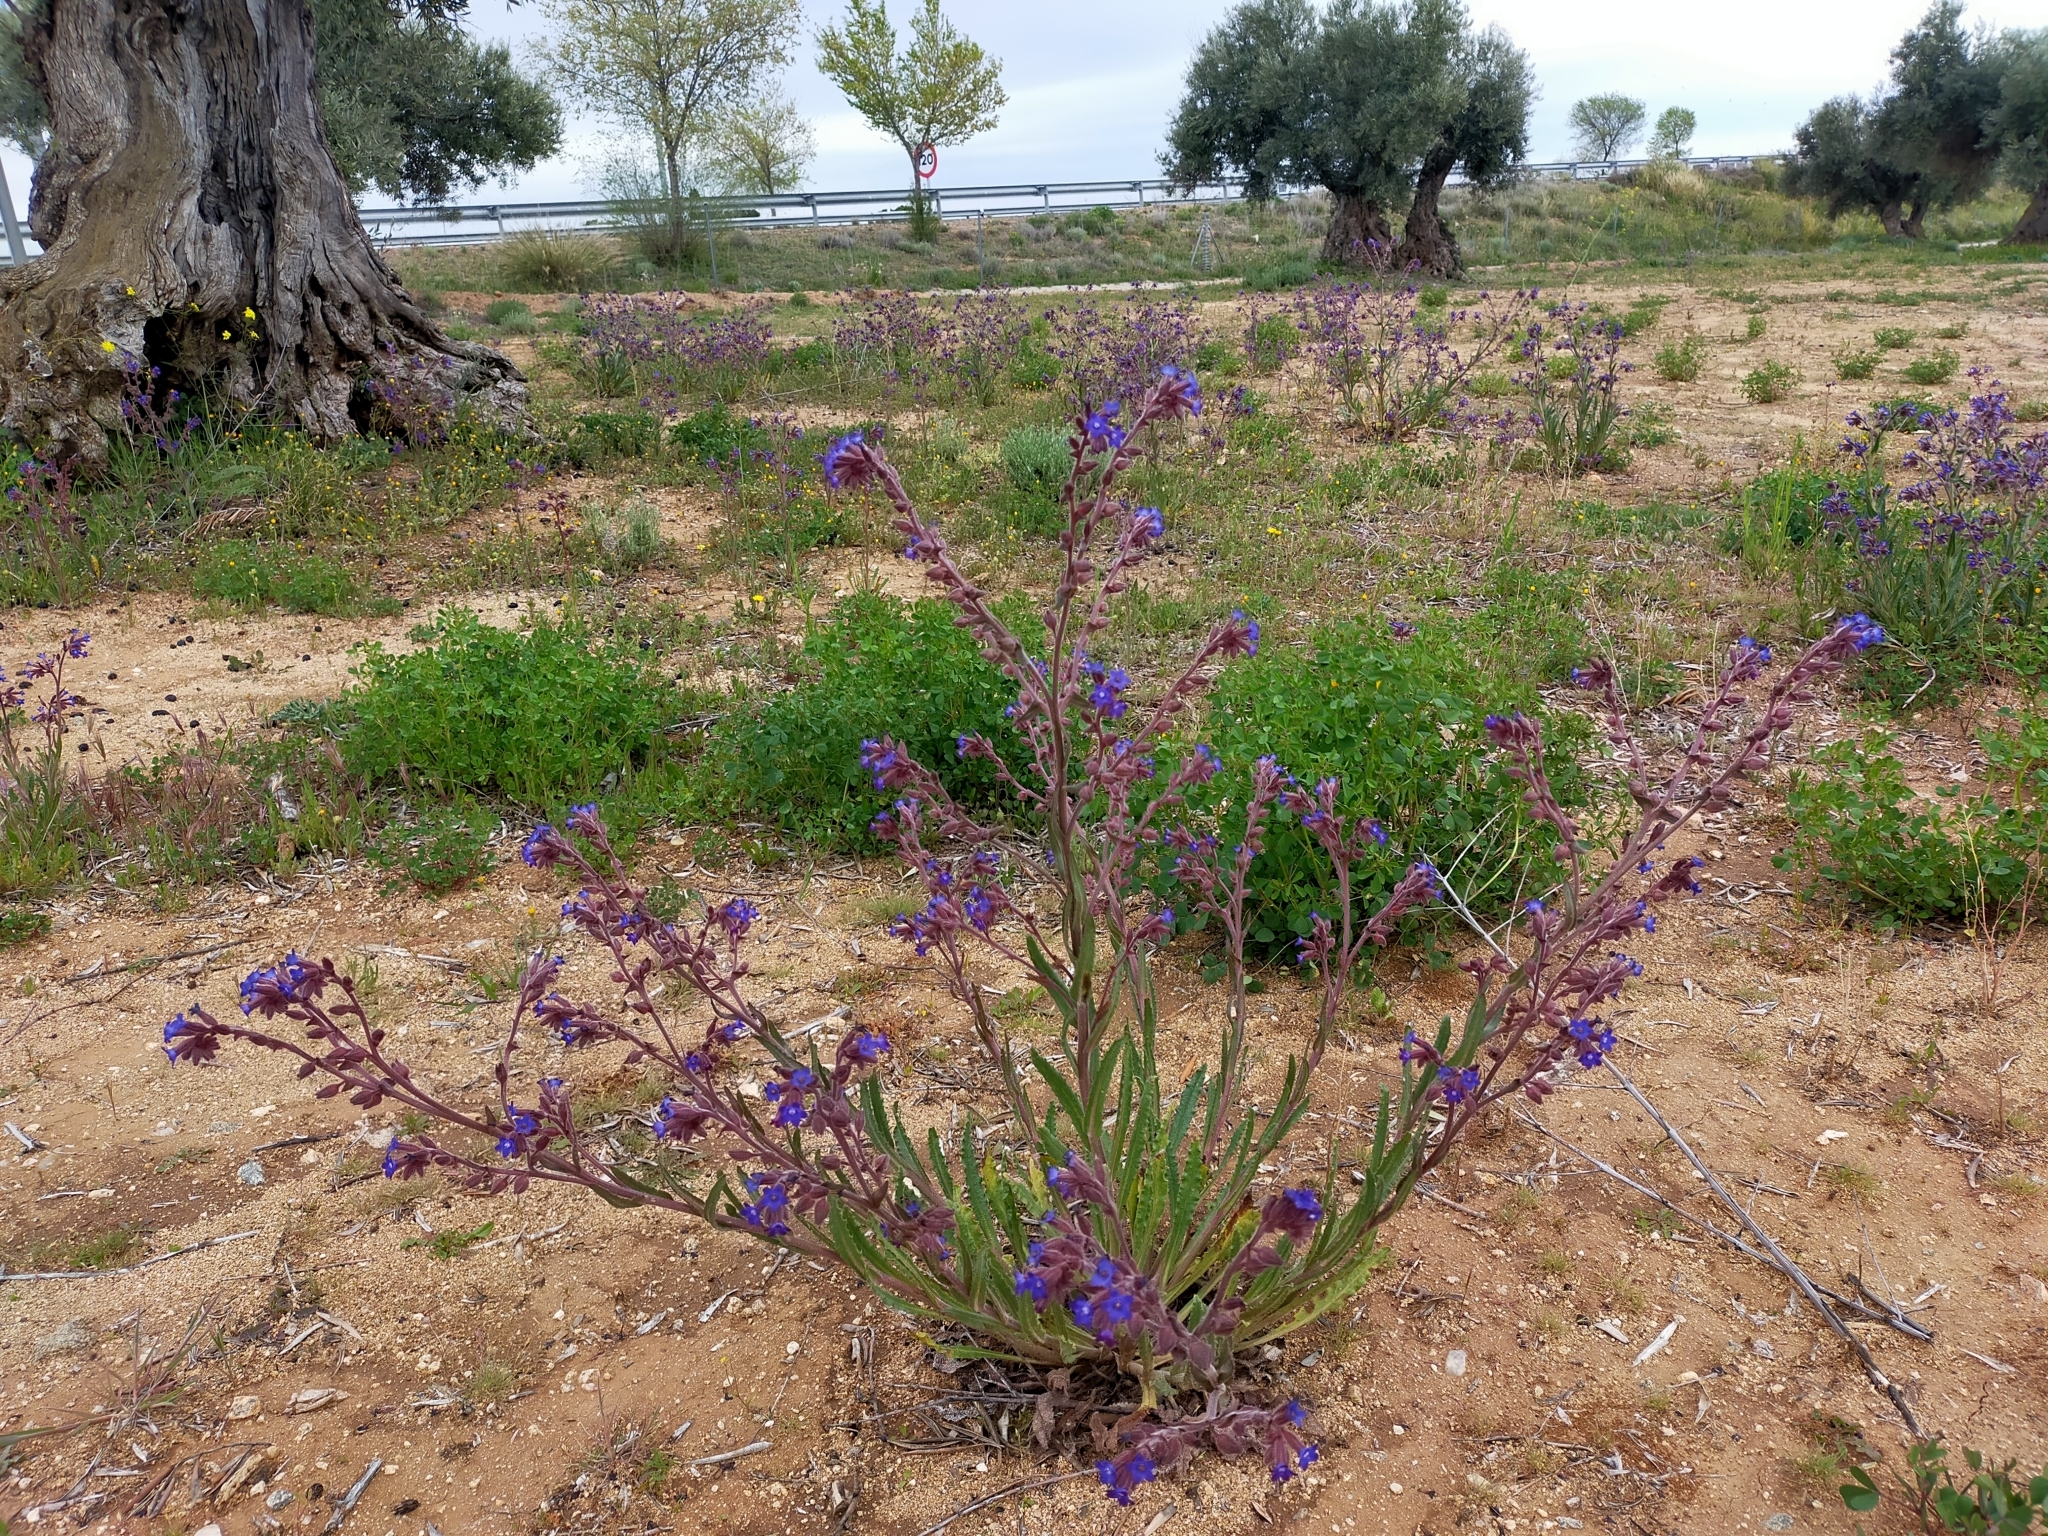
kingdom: Plantae
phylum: Tracheophyta
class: Magnoliopsida
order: Boraginales
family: Boraginaceae
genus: Anchusa
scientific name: Anchusa undulata
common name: Undulate alkanet
